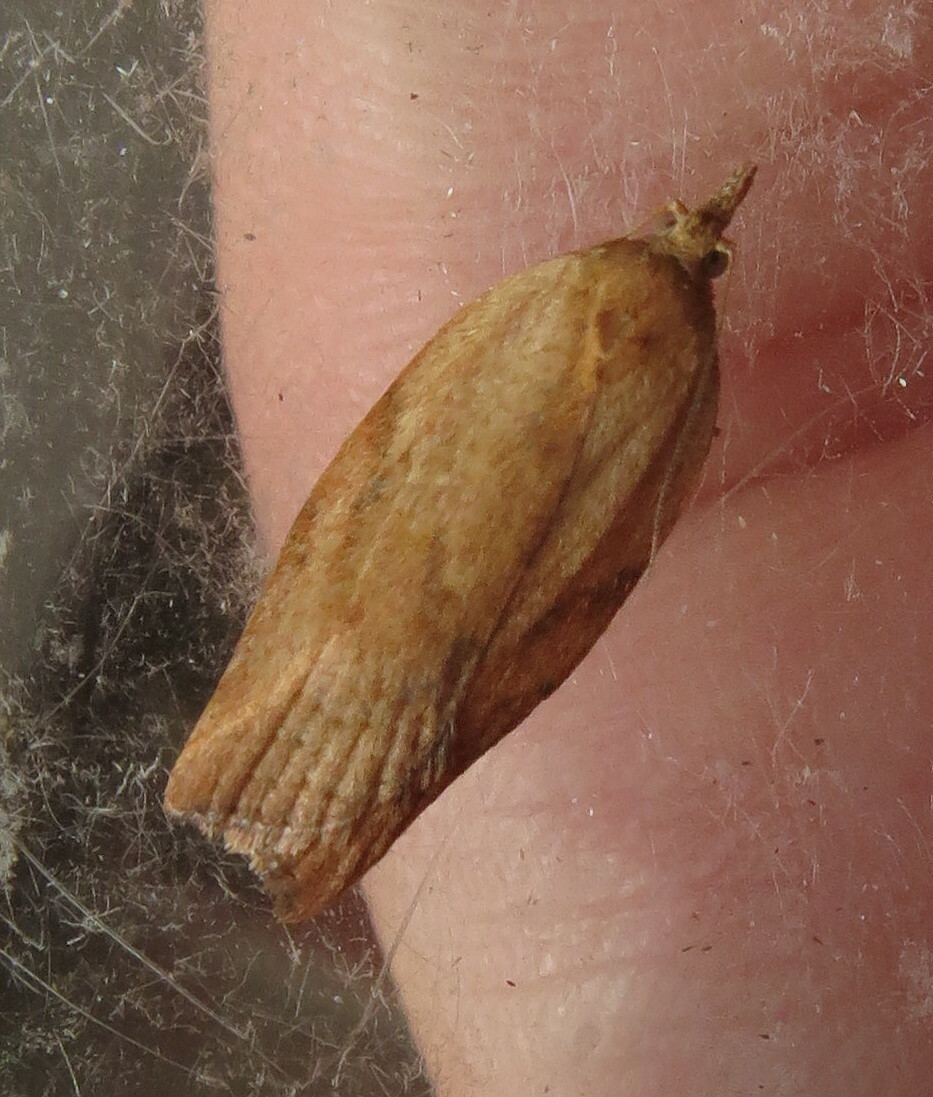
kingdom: Animalia
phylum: Arthropoda
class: Insecta
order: Lepidoptera
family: Tortricidae
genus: Epiphyas
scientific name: Epiphyas postvittana
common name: Light brown apple moth
